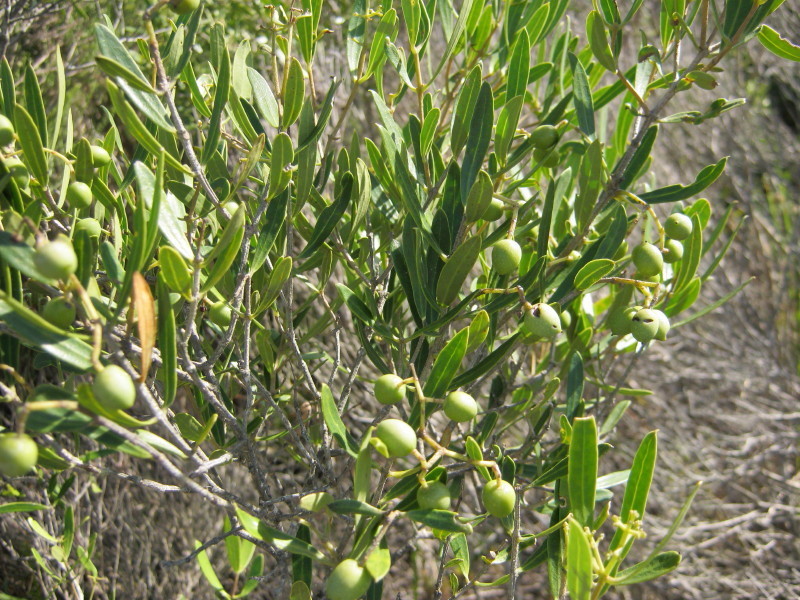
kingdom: Plantae
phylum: Tracheophyta
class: Magnoliopsida
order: Lamiales
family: Oleaceae
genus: Olea
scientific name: Olea exasperata
